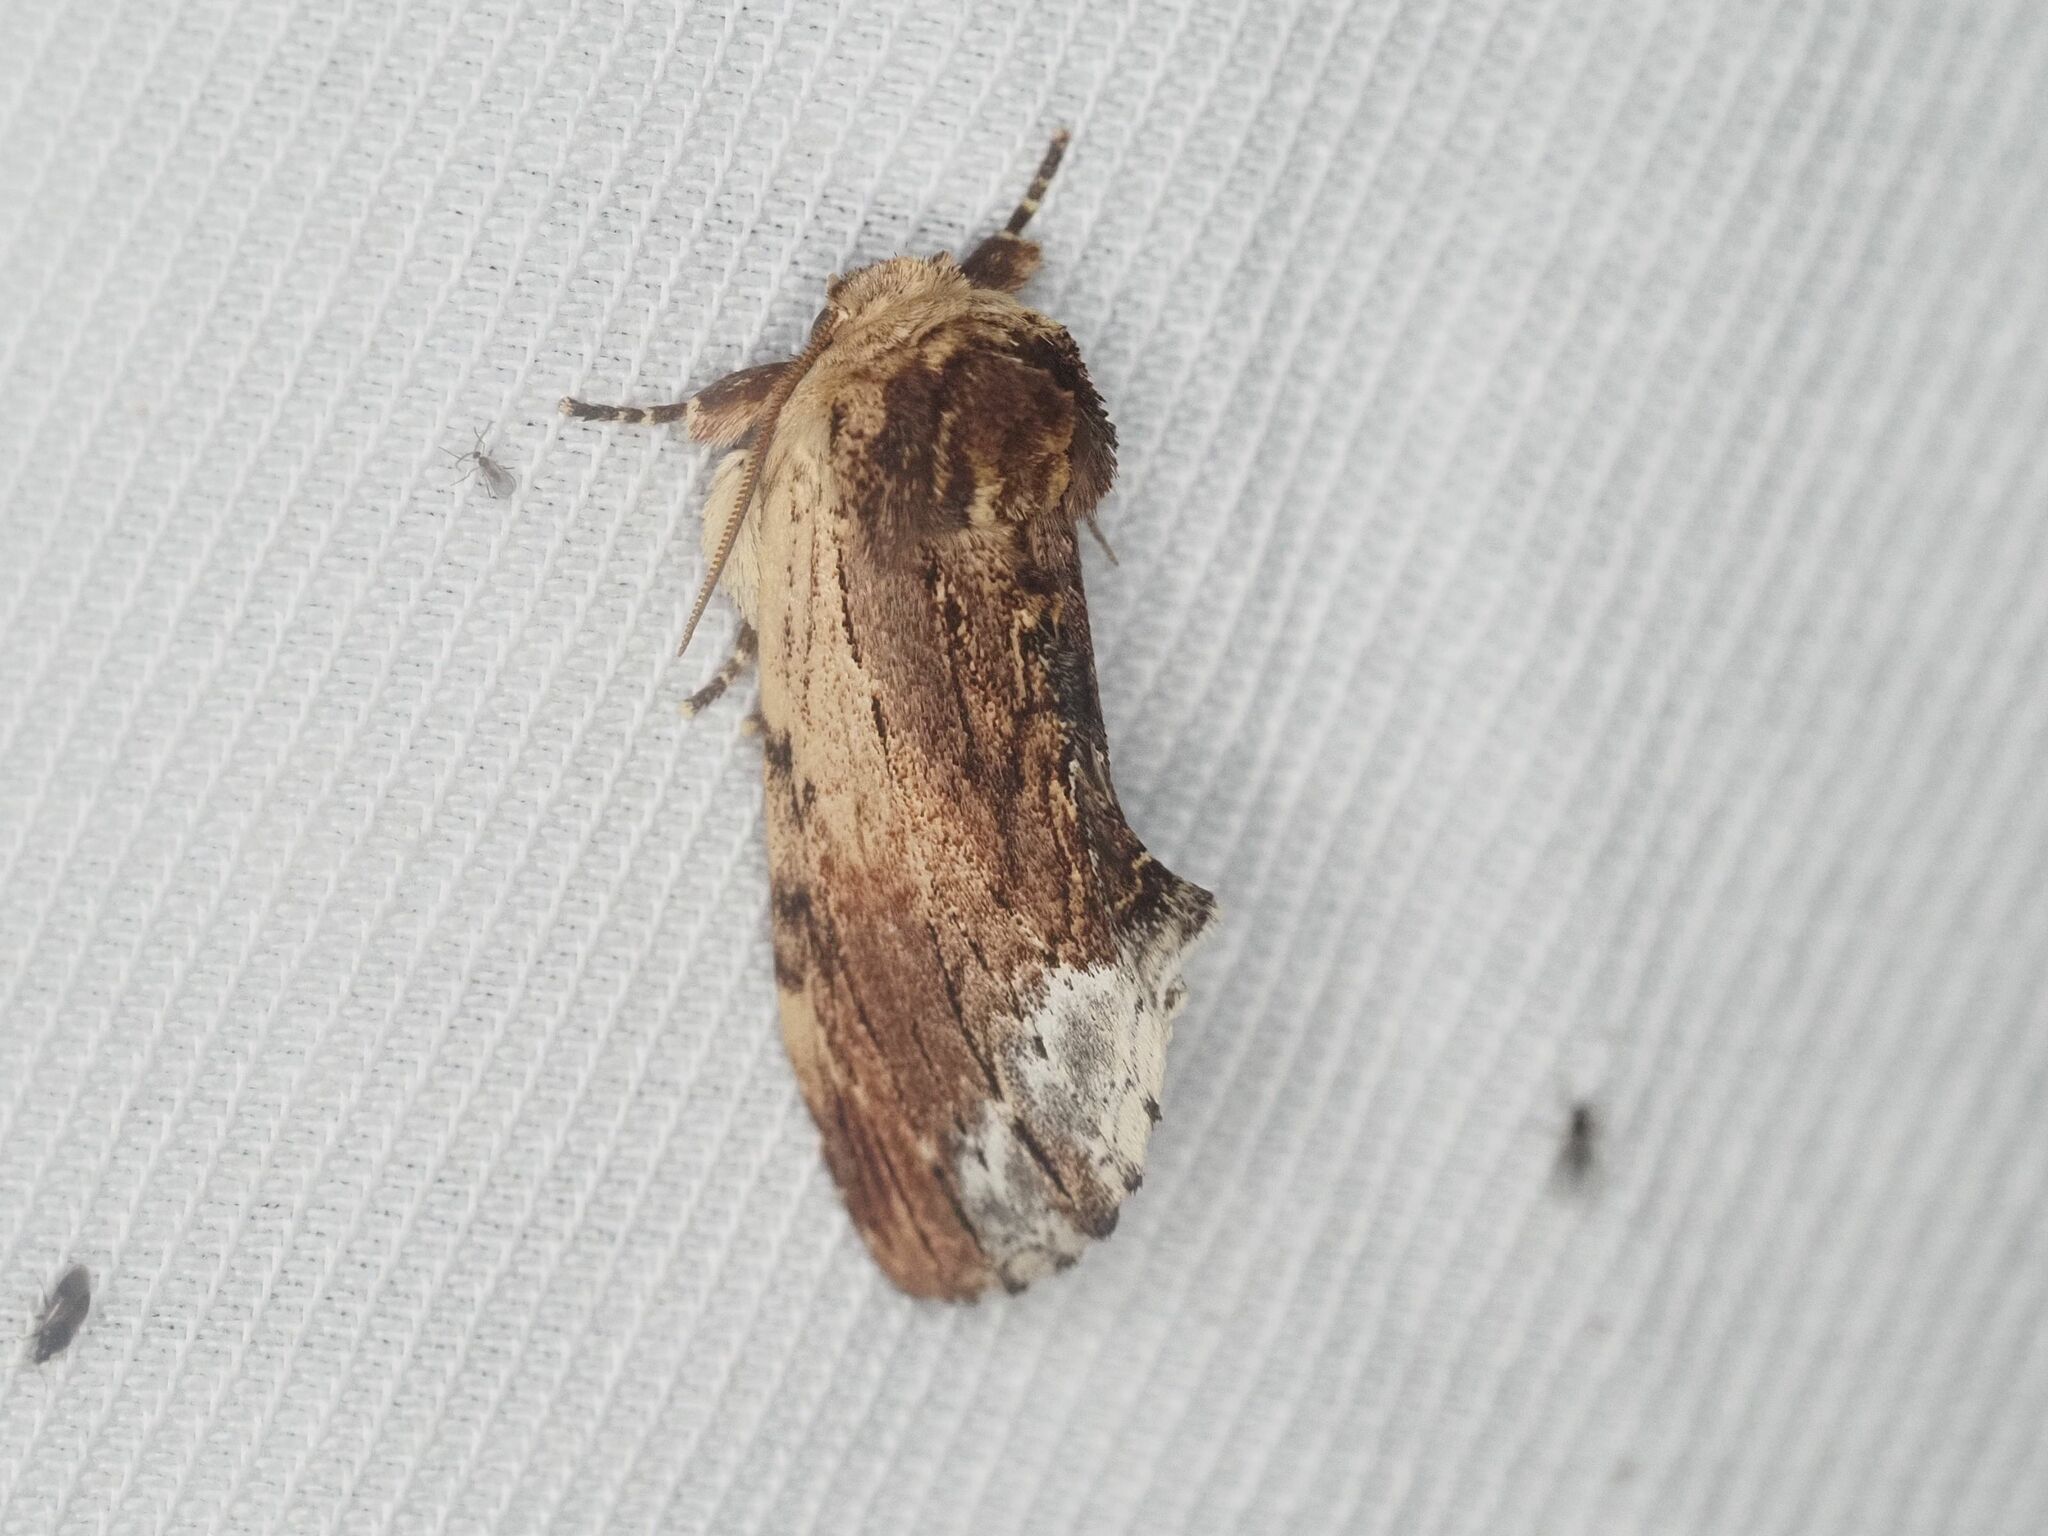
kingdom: Animalia
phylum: Arthropoda
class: Insecta
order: Lepidoptera
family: Notodontidae
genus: Ptilodon
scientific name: Ptilodon cucullina
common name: Maple prominent
